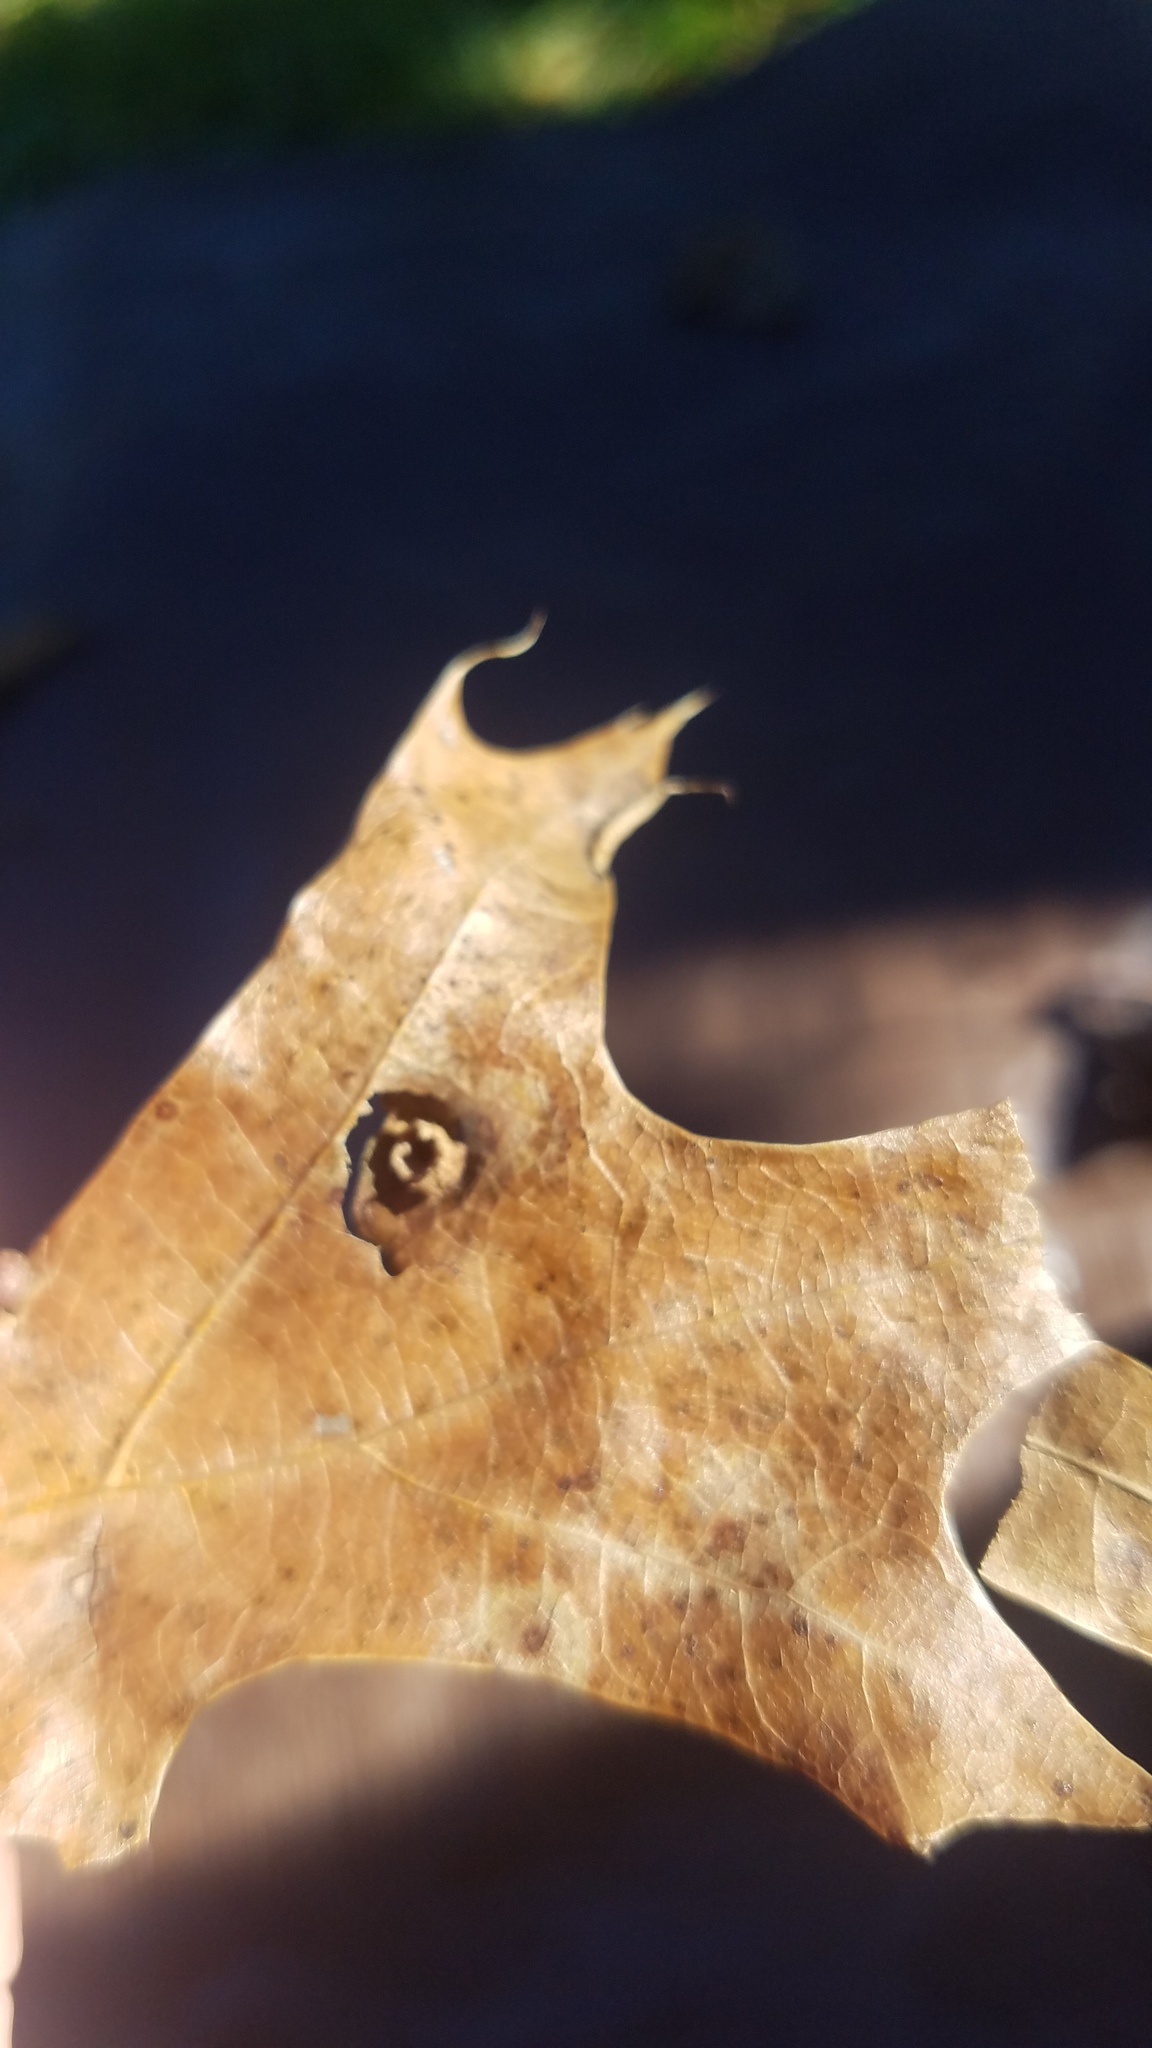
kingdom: Animalia
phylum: Arthropoda
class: Insecta
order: Diptera
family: Cecidomyiidae
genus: Polystepha
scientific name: Polystepha pilulae
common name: Oak leaf gall midge
